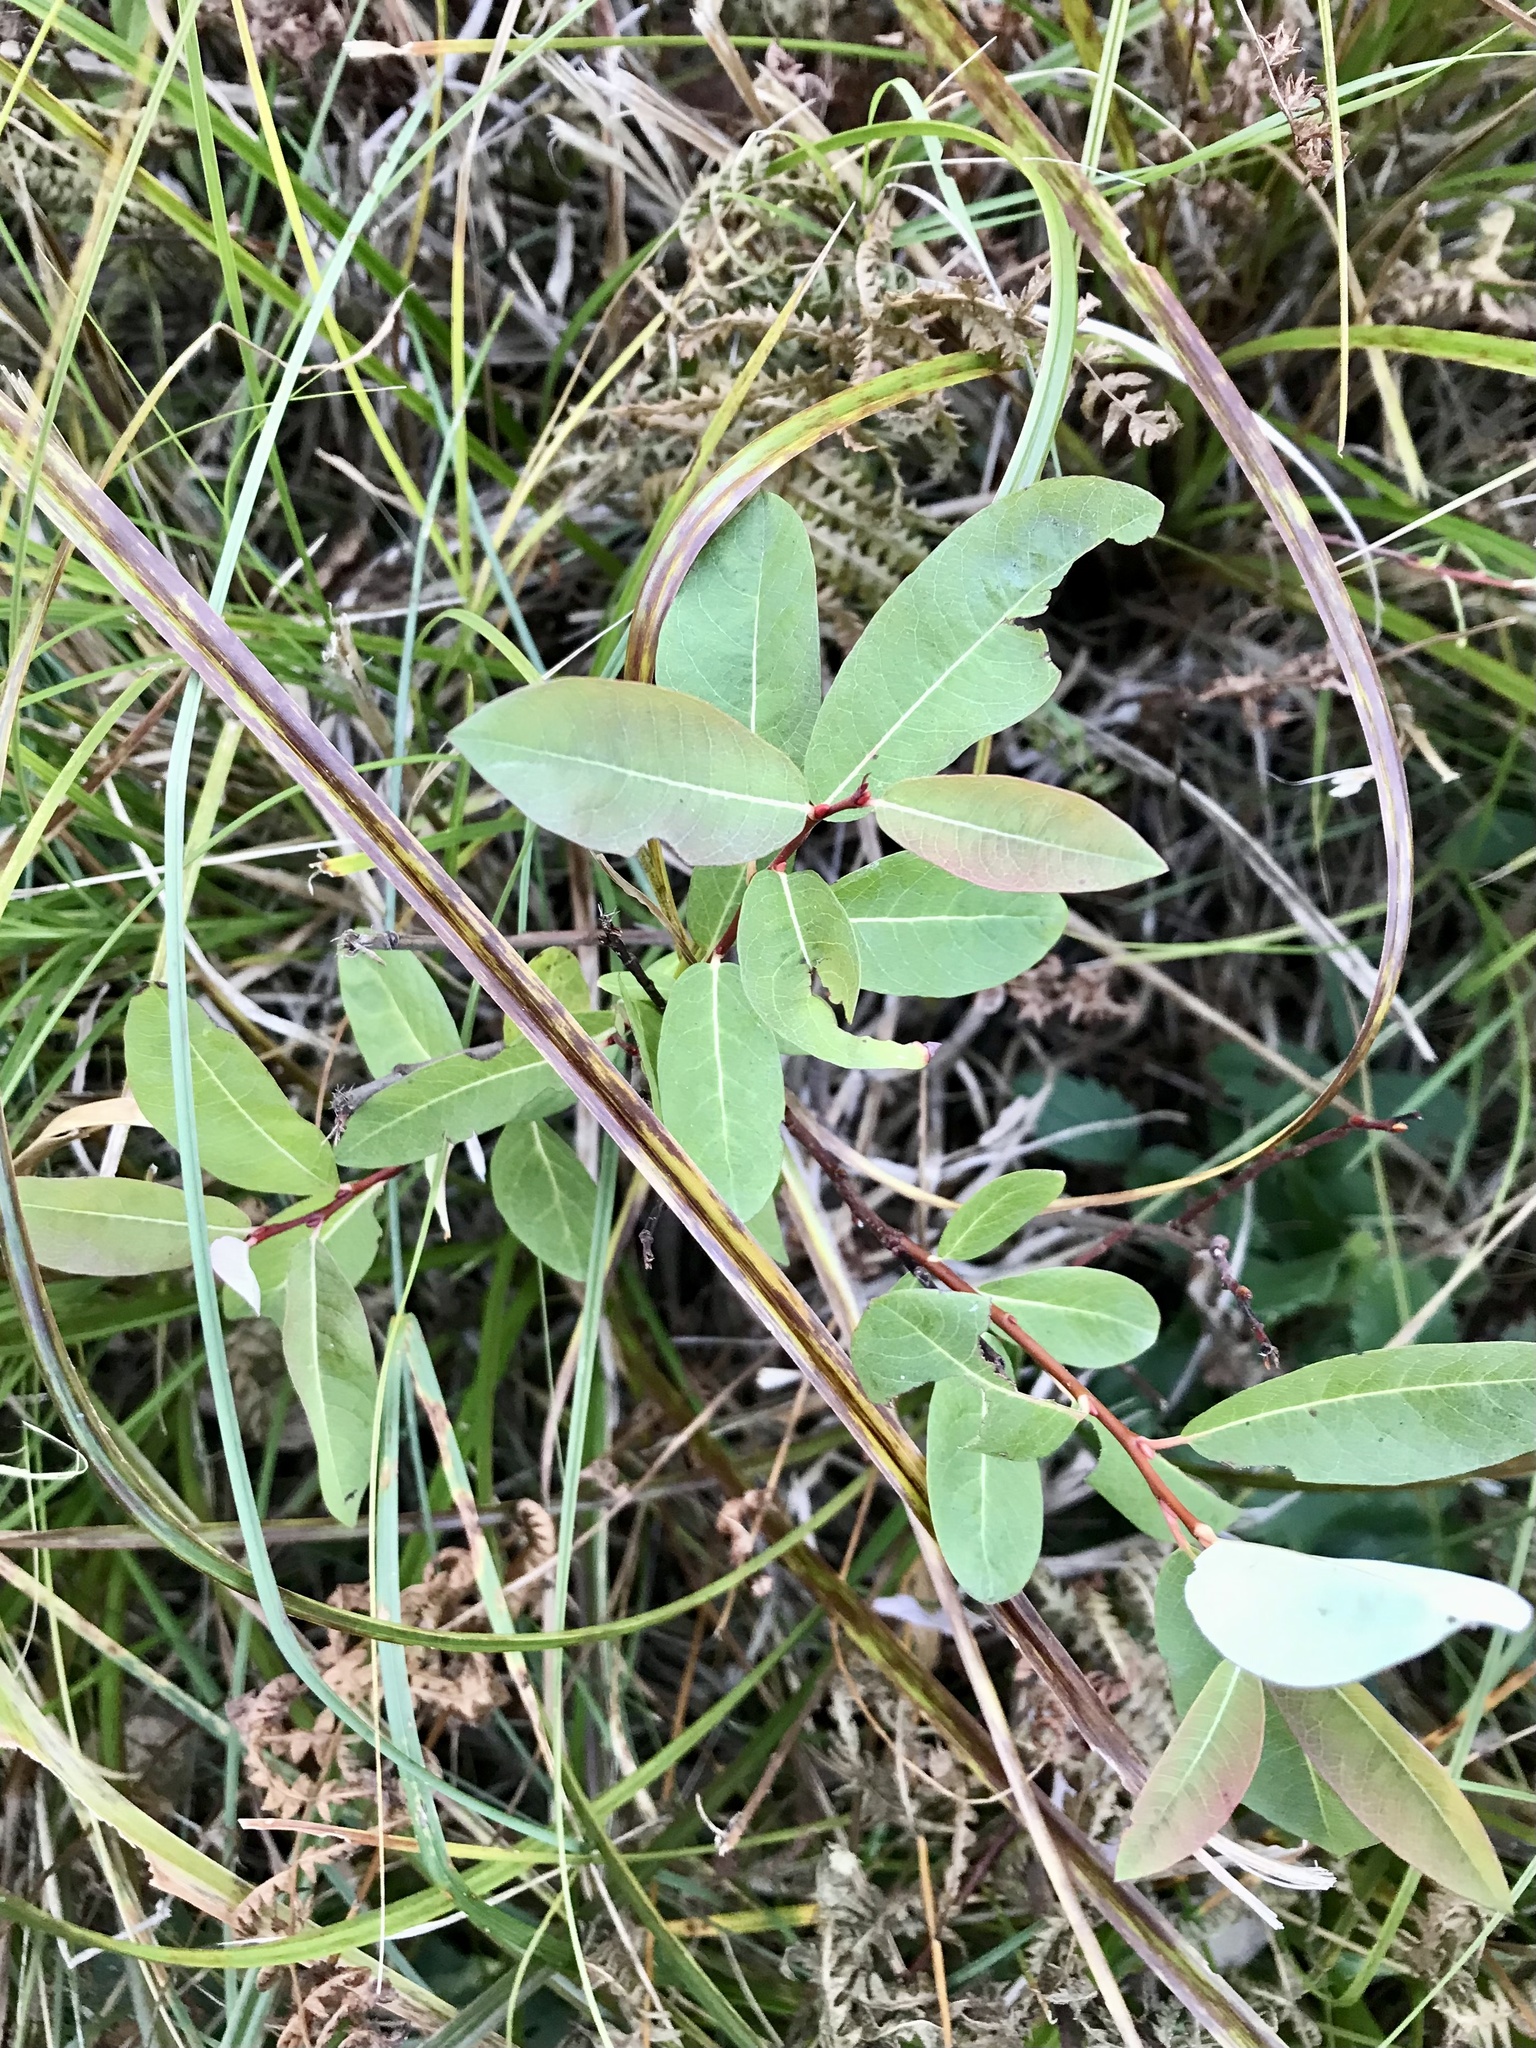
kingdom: Plantae
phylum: Tracheophyta
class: Magnoliopsida
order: Malpighiales
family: Salicaceae
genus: Salix
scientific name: Salix pedicellaris
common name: Bog willow
